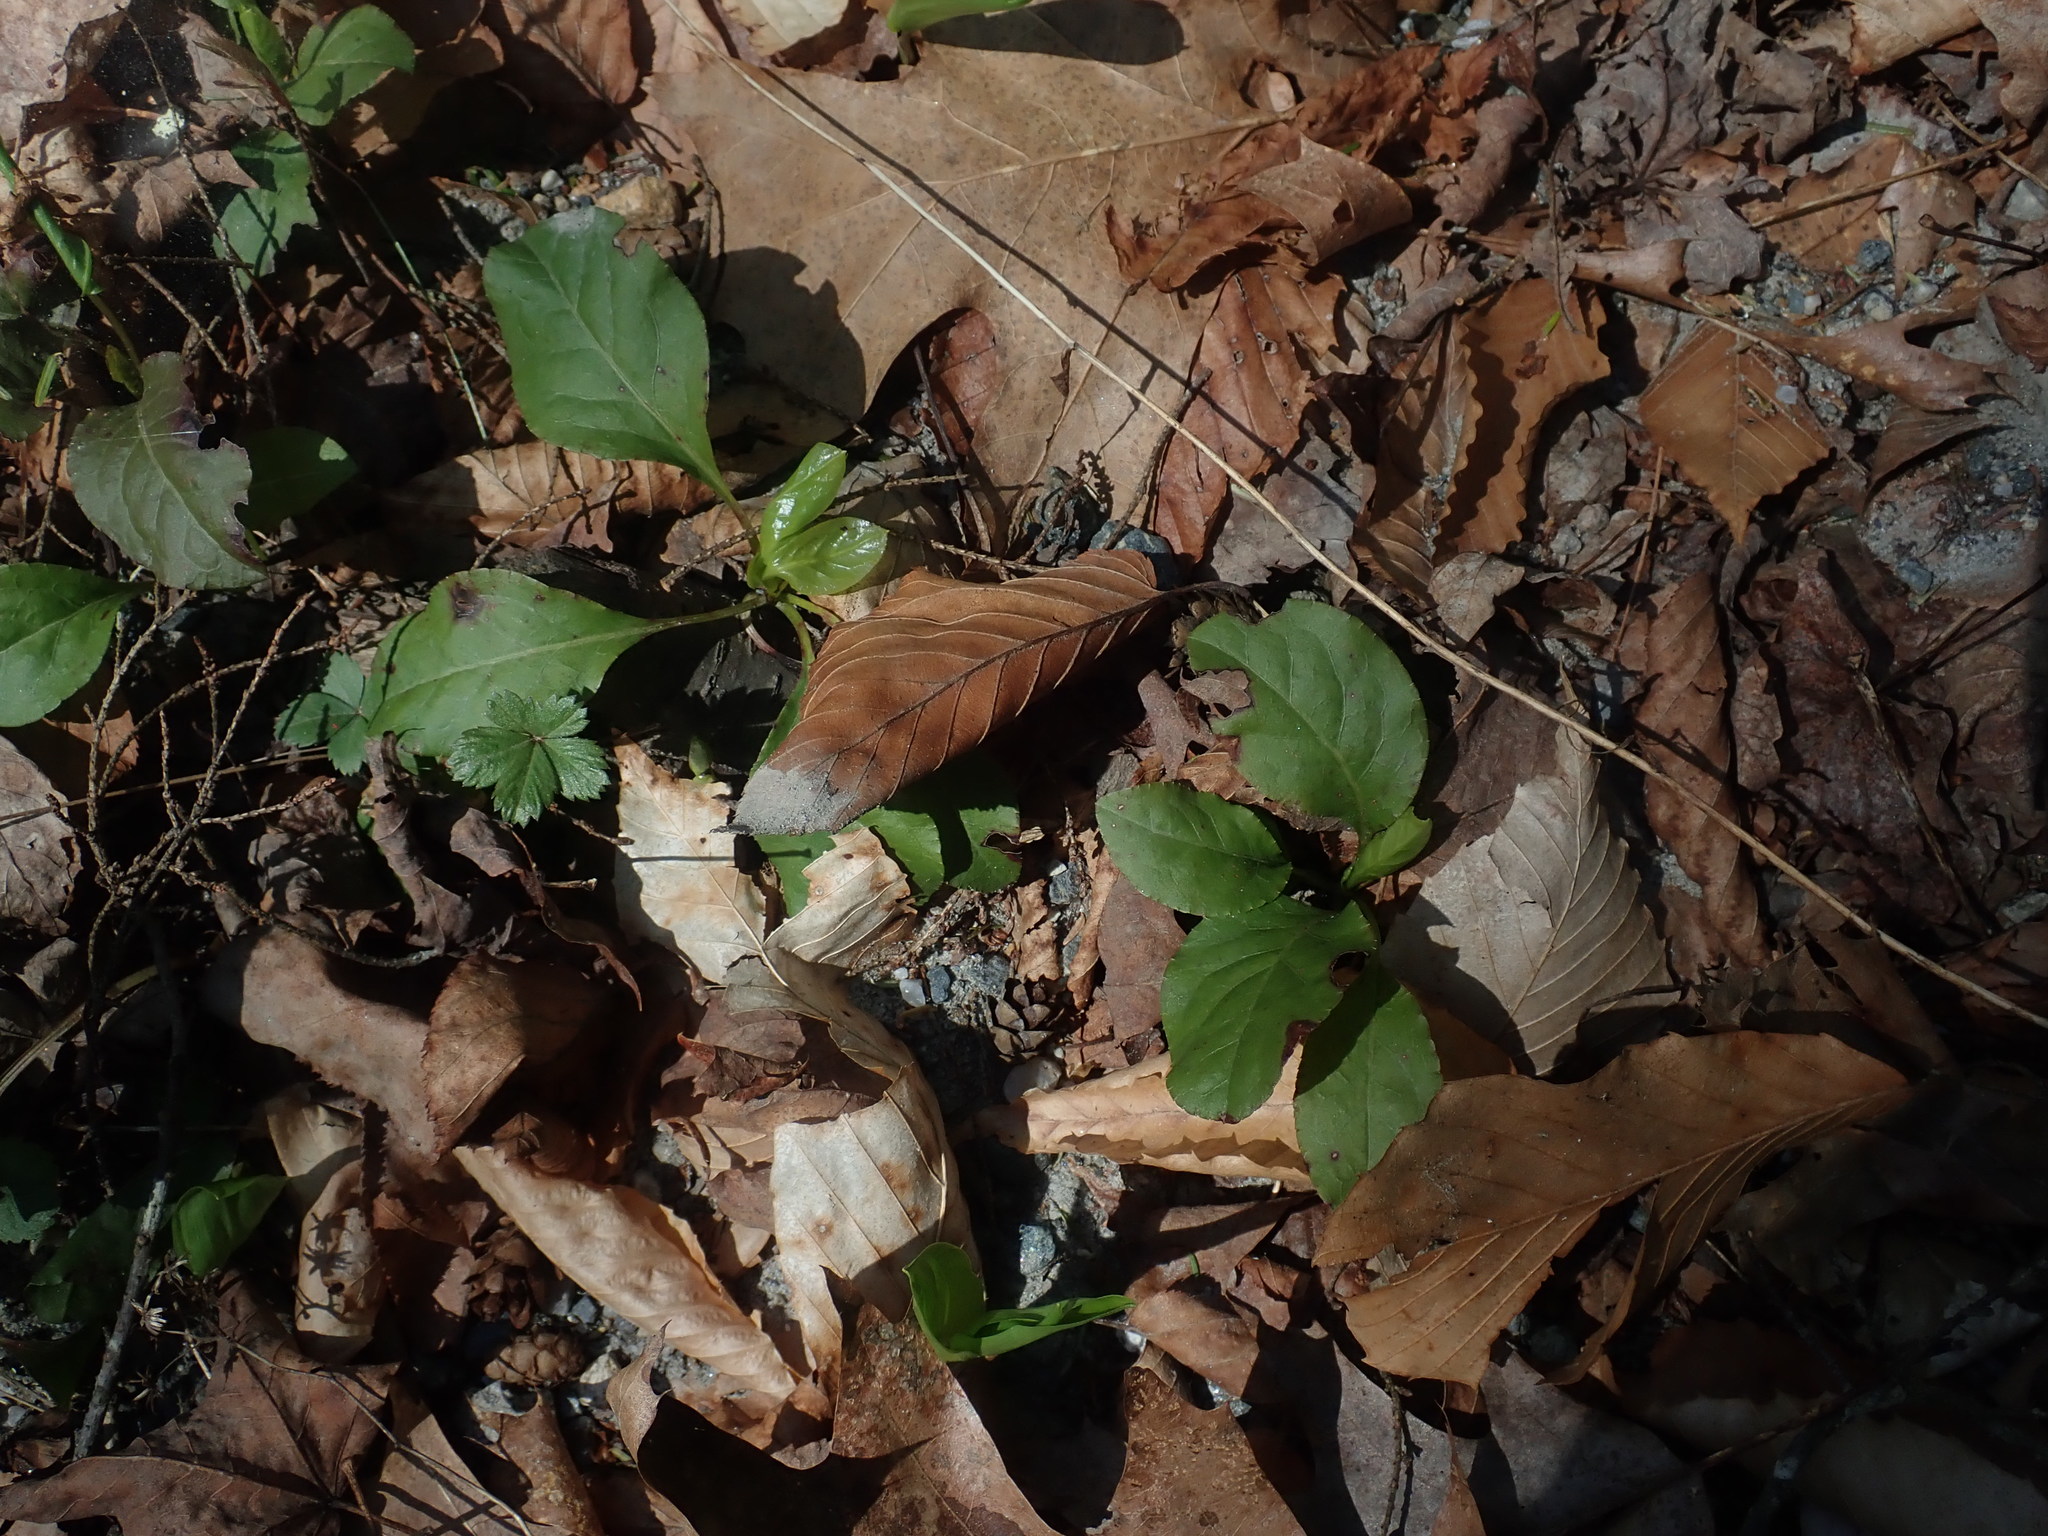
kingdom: Plantae
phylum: Tracheophyta
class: Magnoliopsida
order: Ericales
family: Ericaceae
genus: Pyrola
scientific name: Pyrola elliptica
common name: Shinleaf
